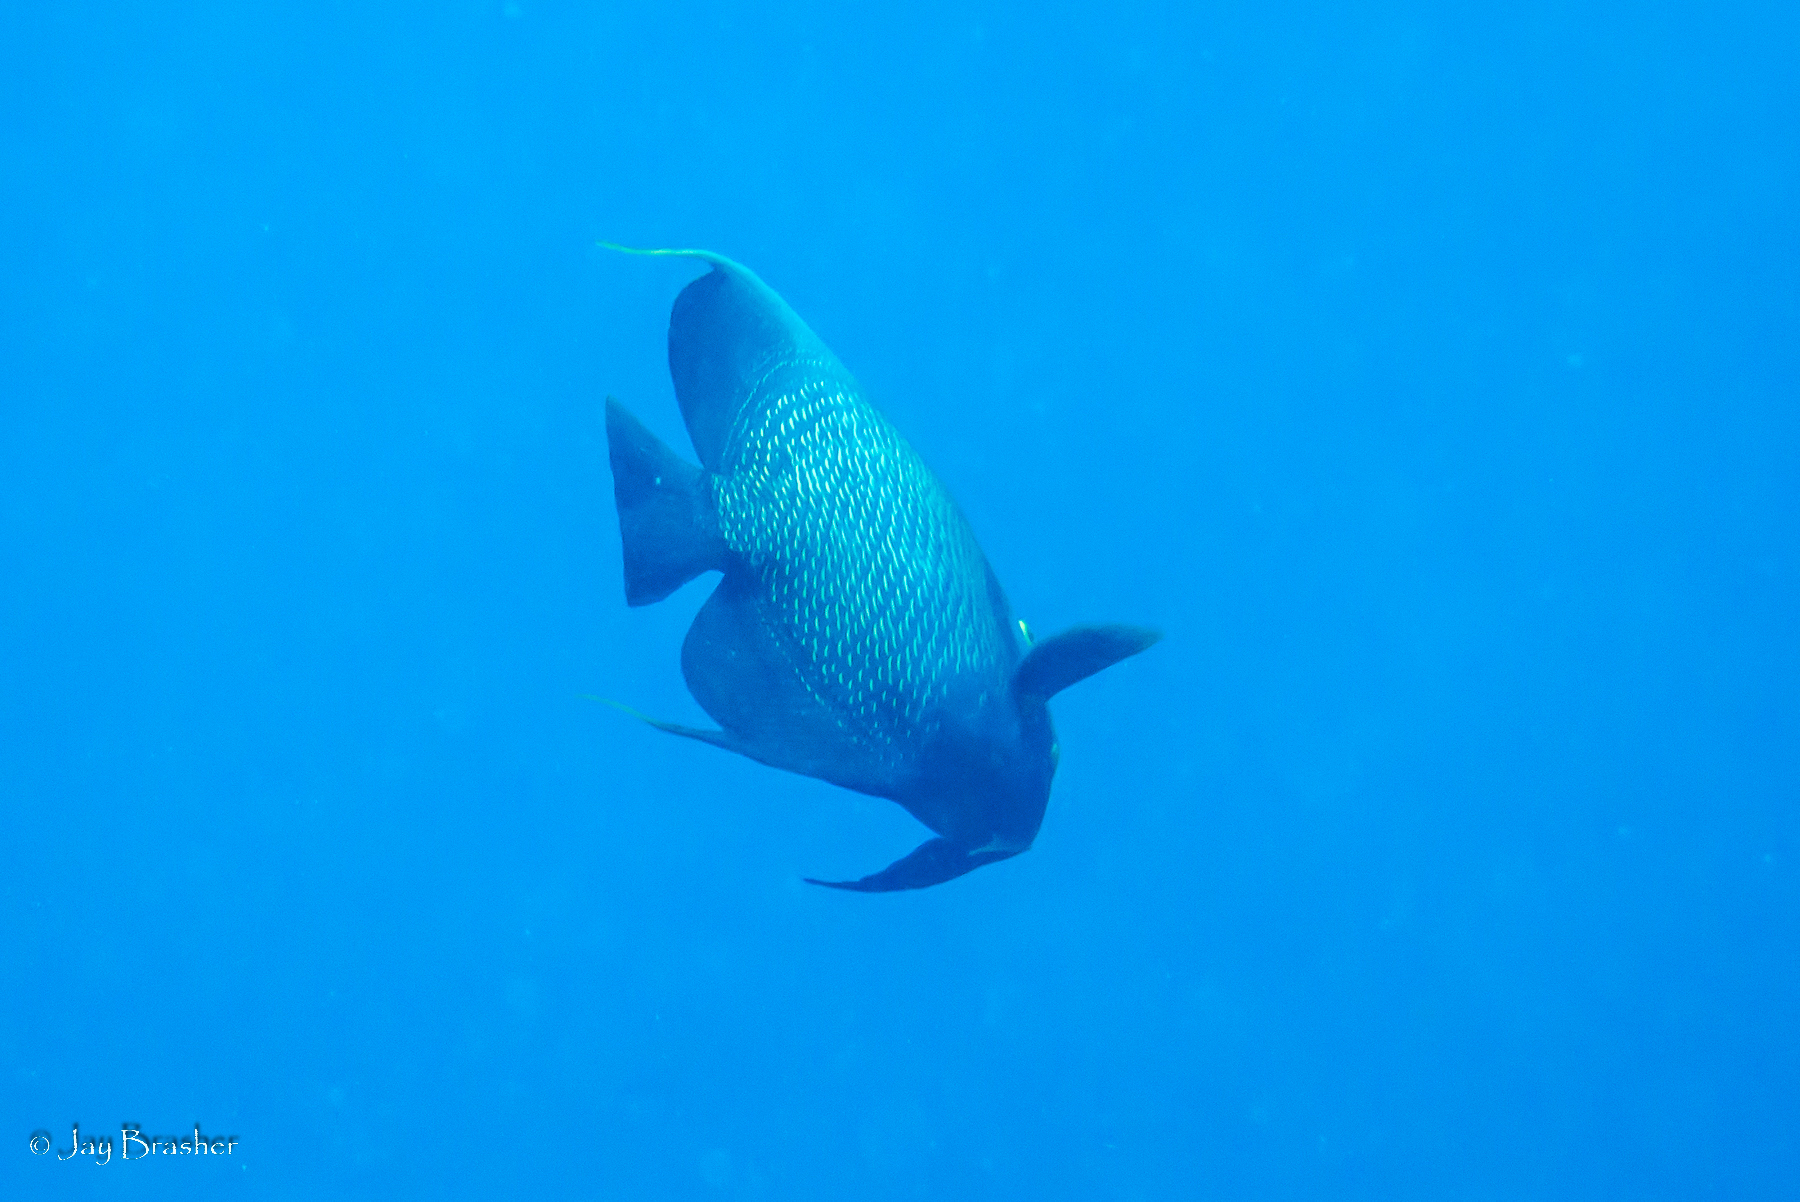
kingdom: Animalia
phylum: Chordata
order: Perciformes
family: Pomacanthidae
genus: Pomacanthus
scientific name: Pomacanthus paru
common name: French angelfish
